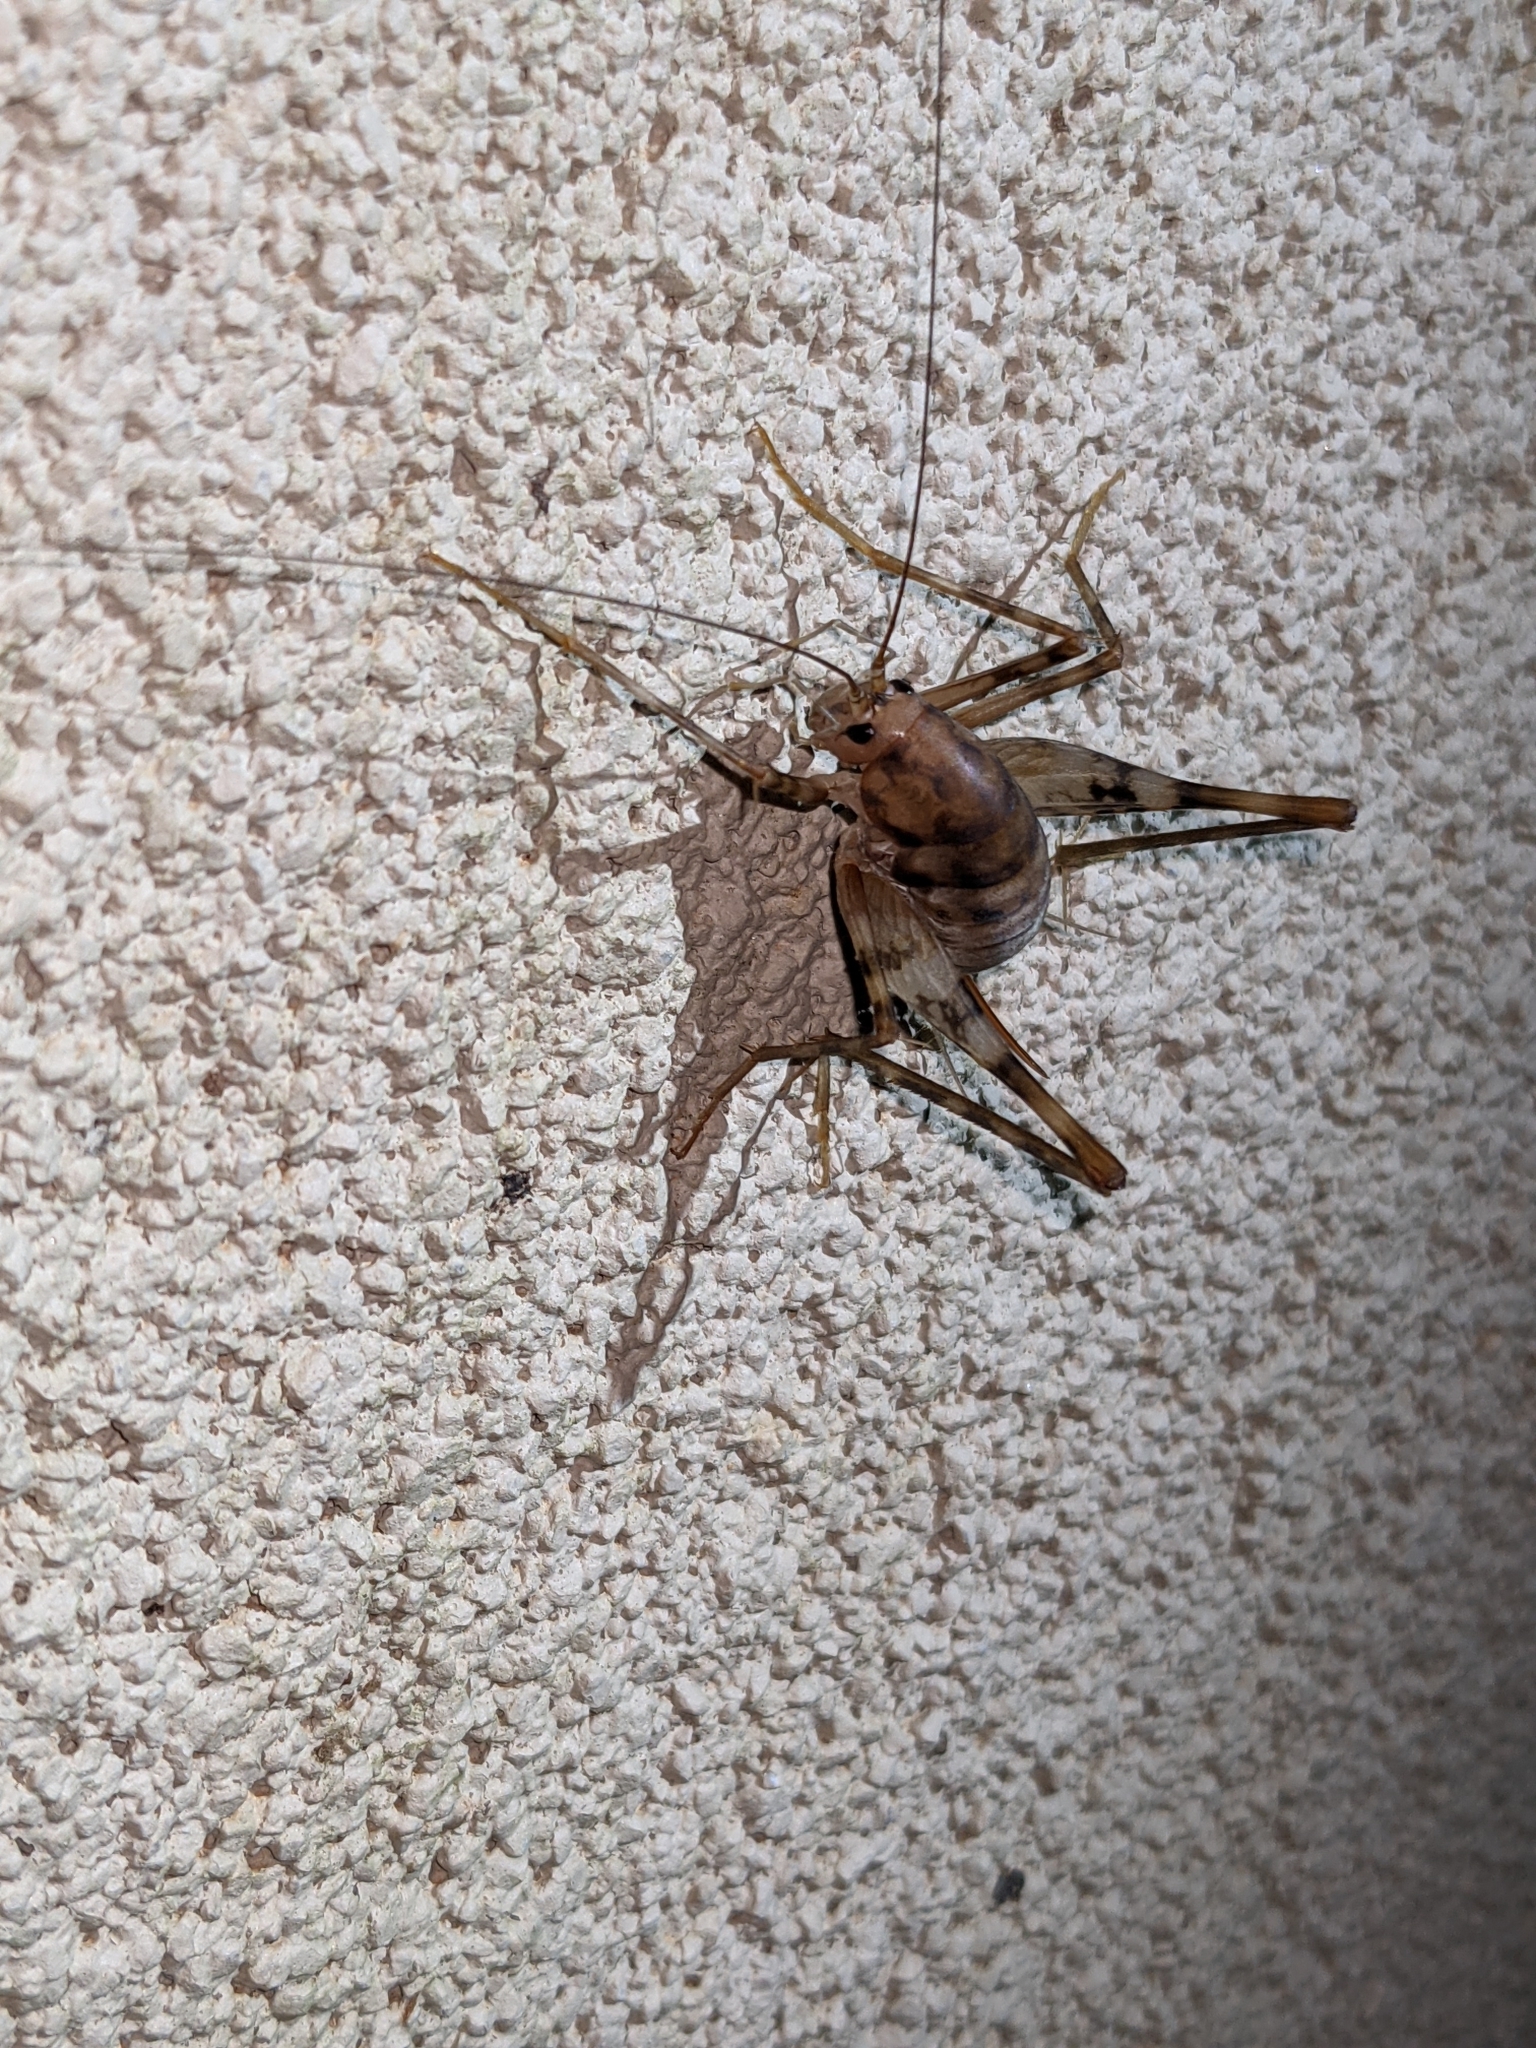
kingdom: Animalia
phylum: Arthropoda
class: Insecta
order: Orthoptera
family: Rhaphidophoridae
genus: Tachycines
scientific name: Tachycines asynamorus
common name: Greenhouse camel cricket
